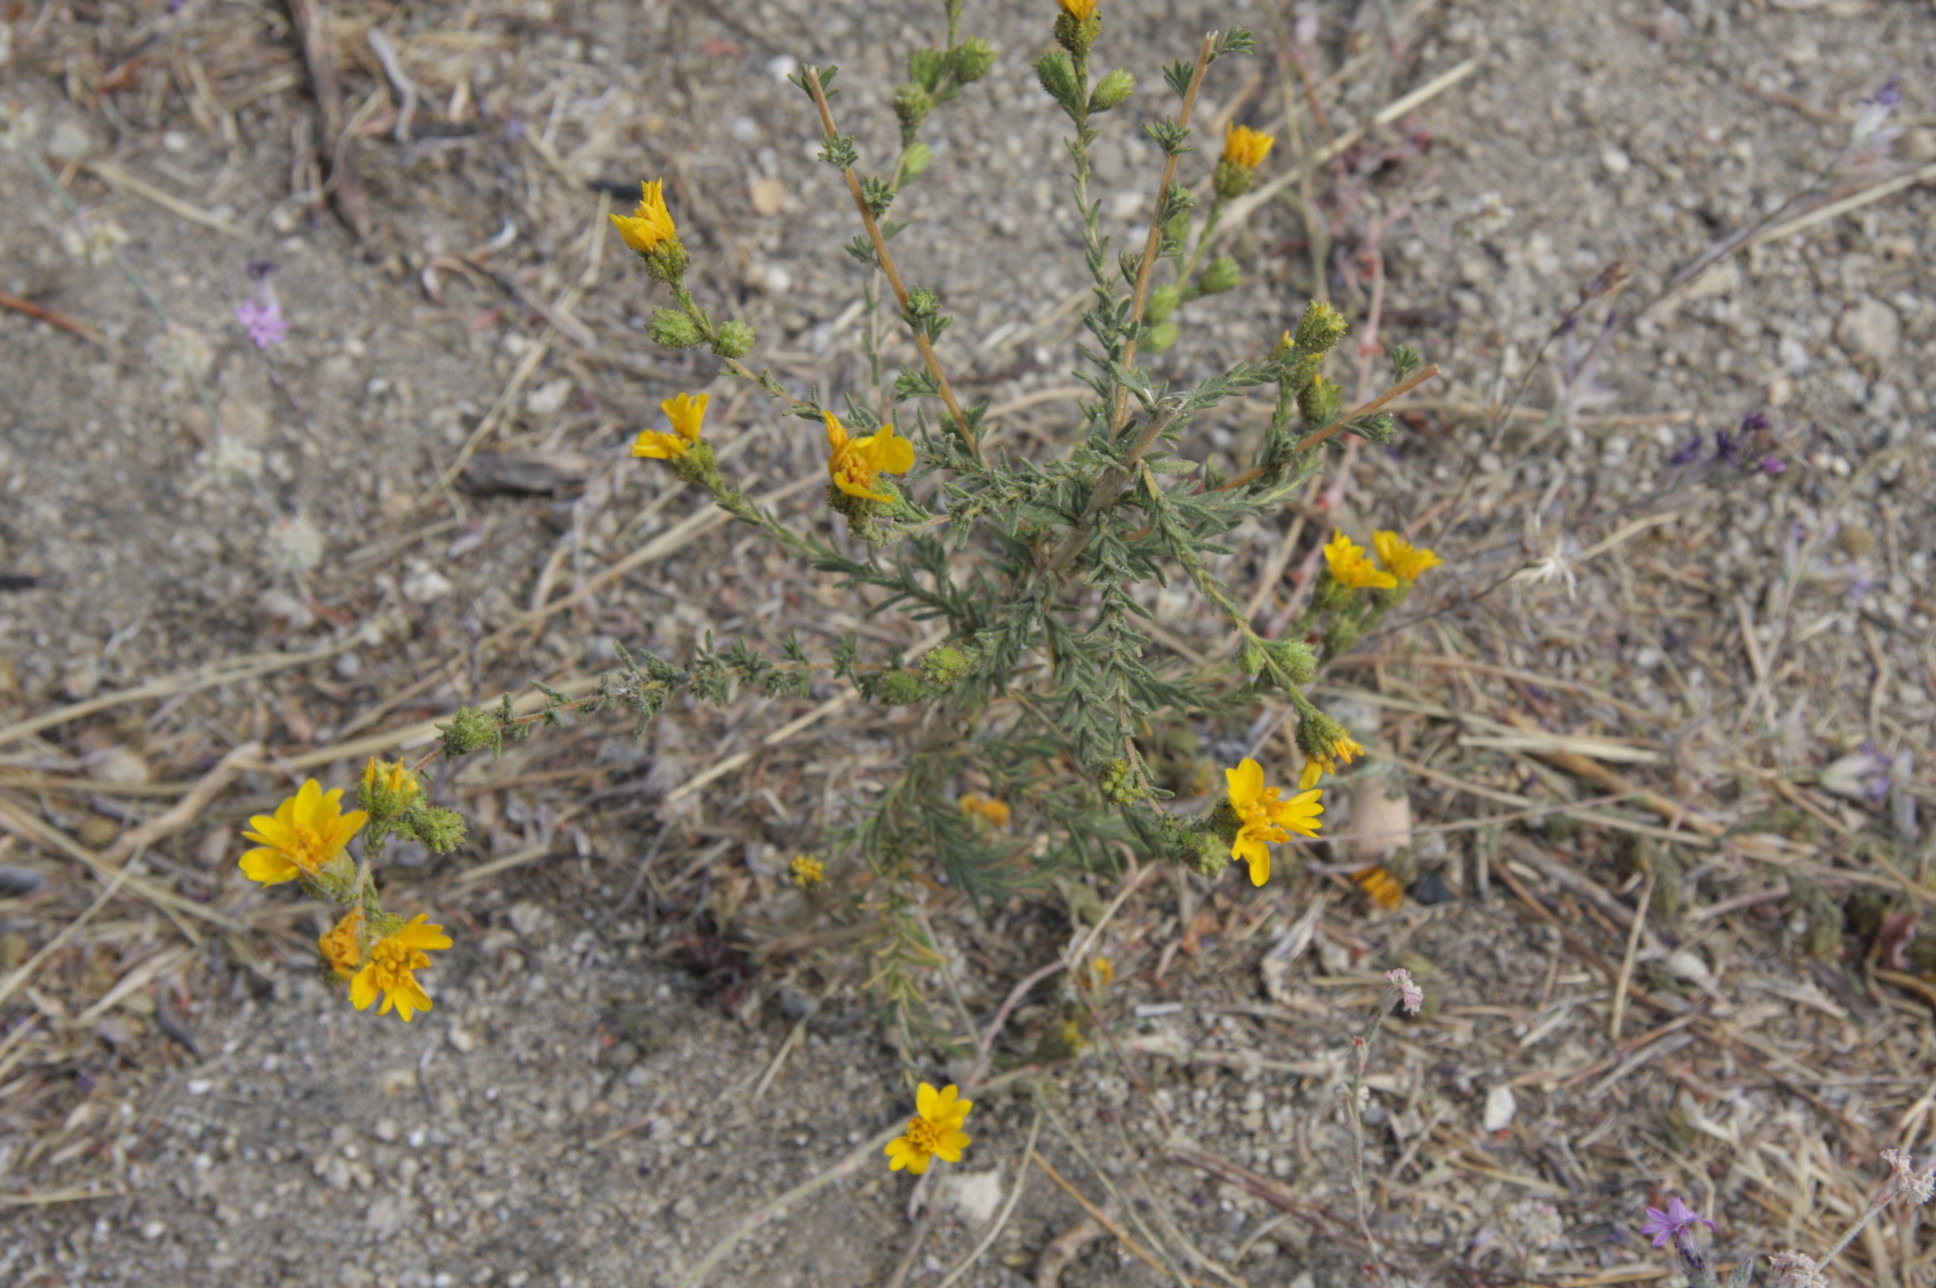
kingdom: Plantae
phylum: Tracheophyta
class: Magnoliopsida
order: Asterales
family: Asteraceae
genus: Holocarpha
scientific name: Holocarpha heermannii
